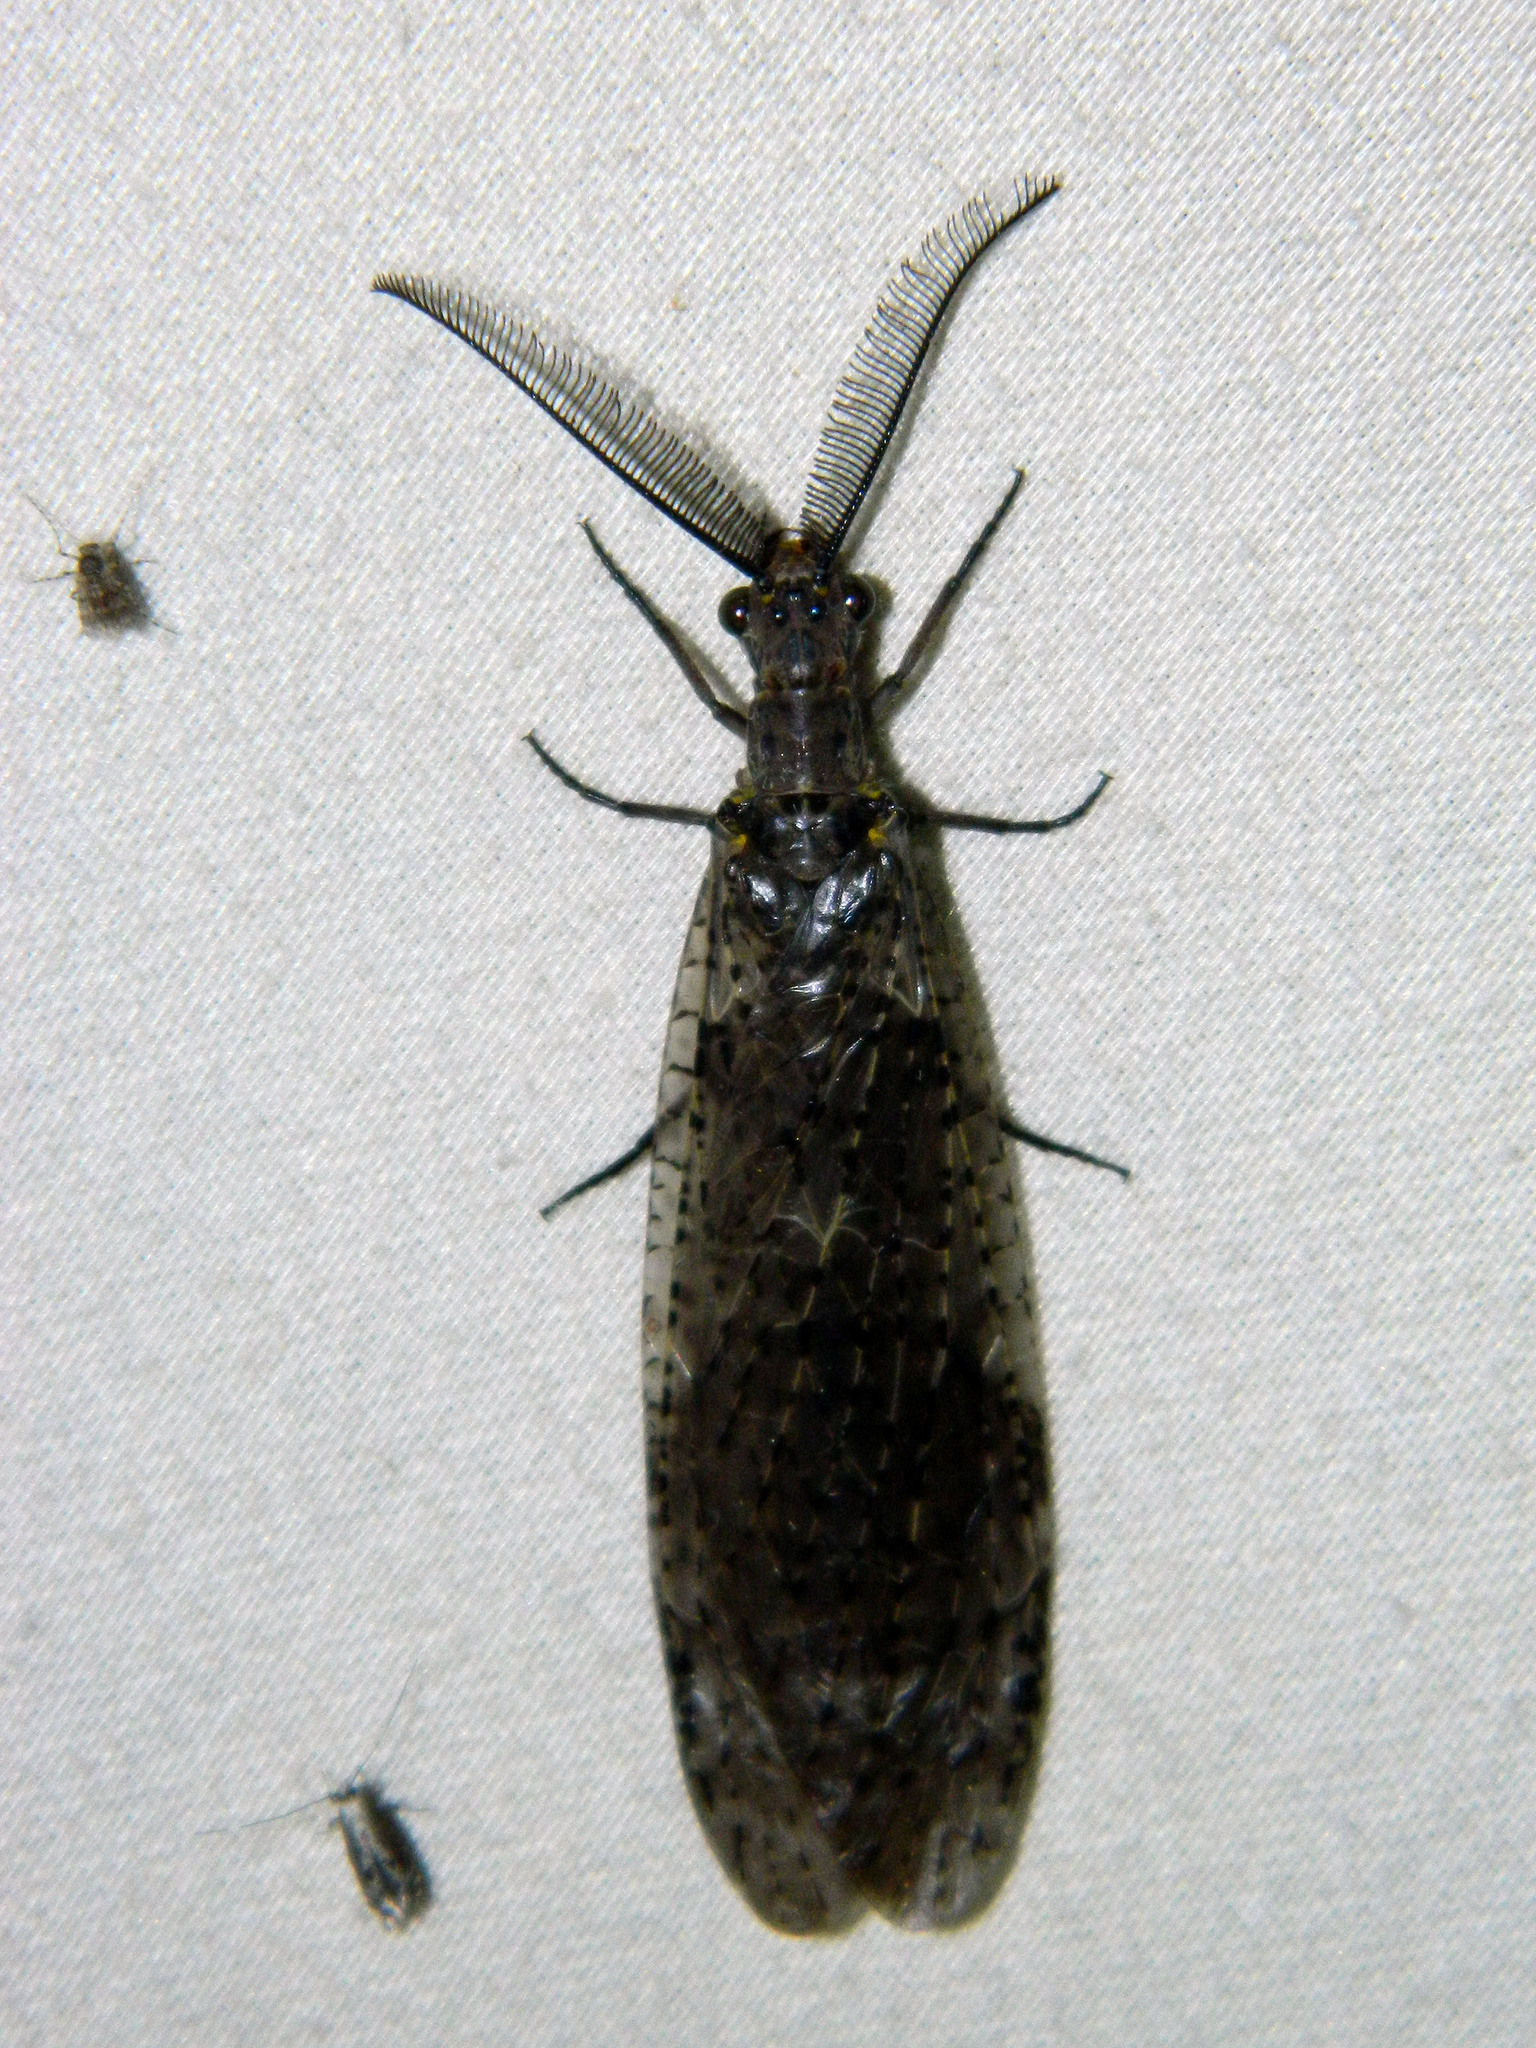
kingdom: Animalia
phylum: Arthropoda
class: Insecta
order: Megaloptera
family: Corydalidae
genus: Chauliodes
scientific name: Chauliodes rastricornis
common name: Spring fishfly
